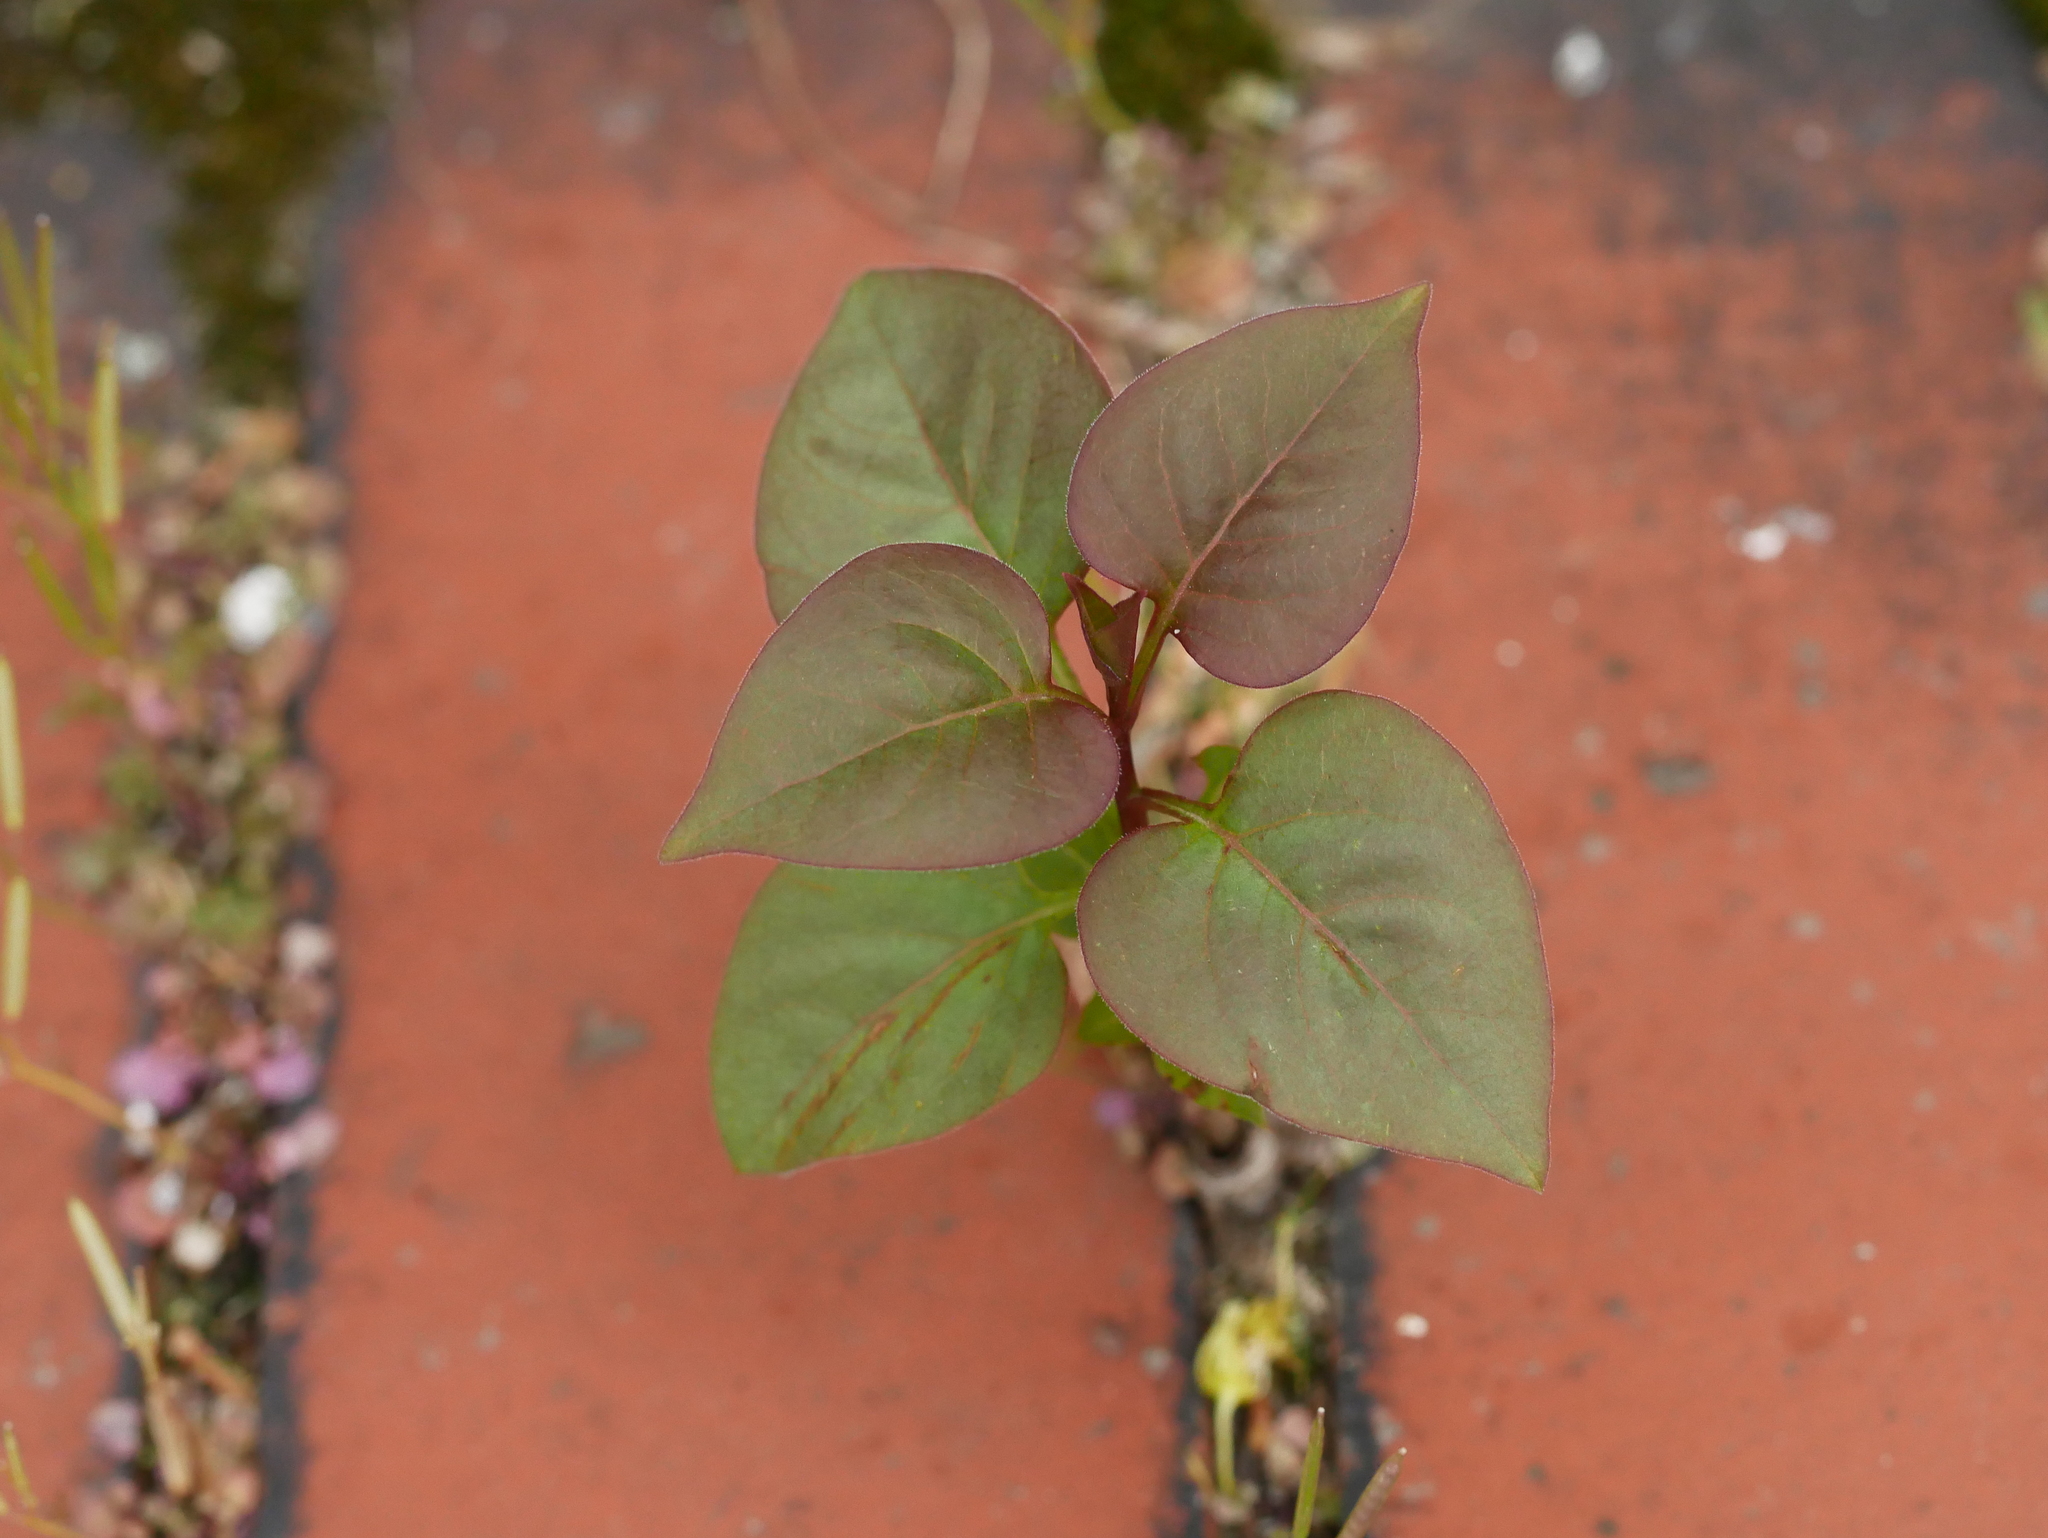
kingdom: Plantae
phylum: Tracheophyta
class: Magnoliopsida
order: Lamiales
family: Oleaceae
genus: Syringa
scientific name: Syringa vulgaris
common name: Common lilac
